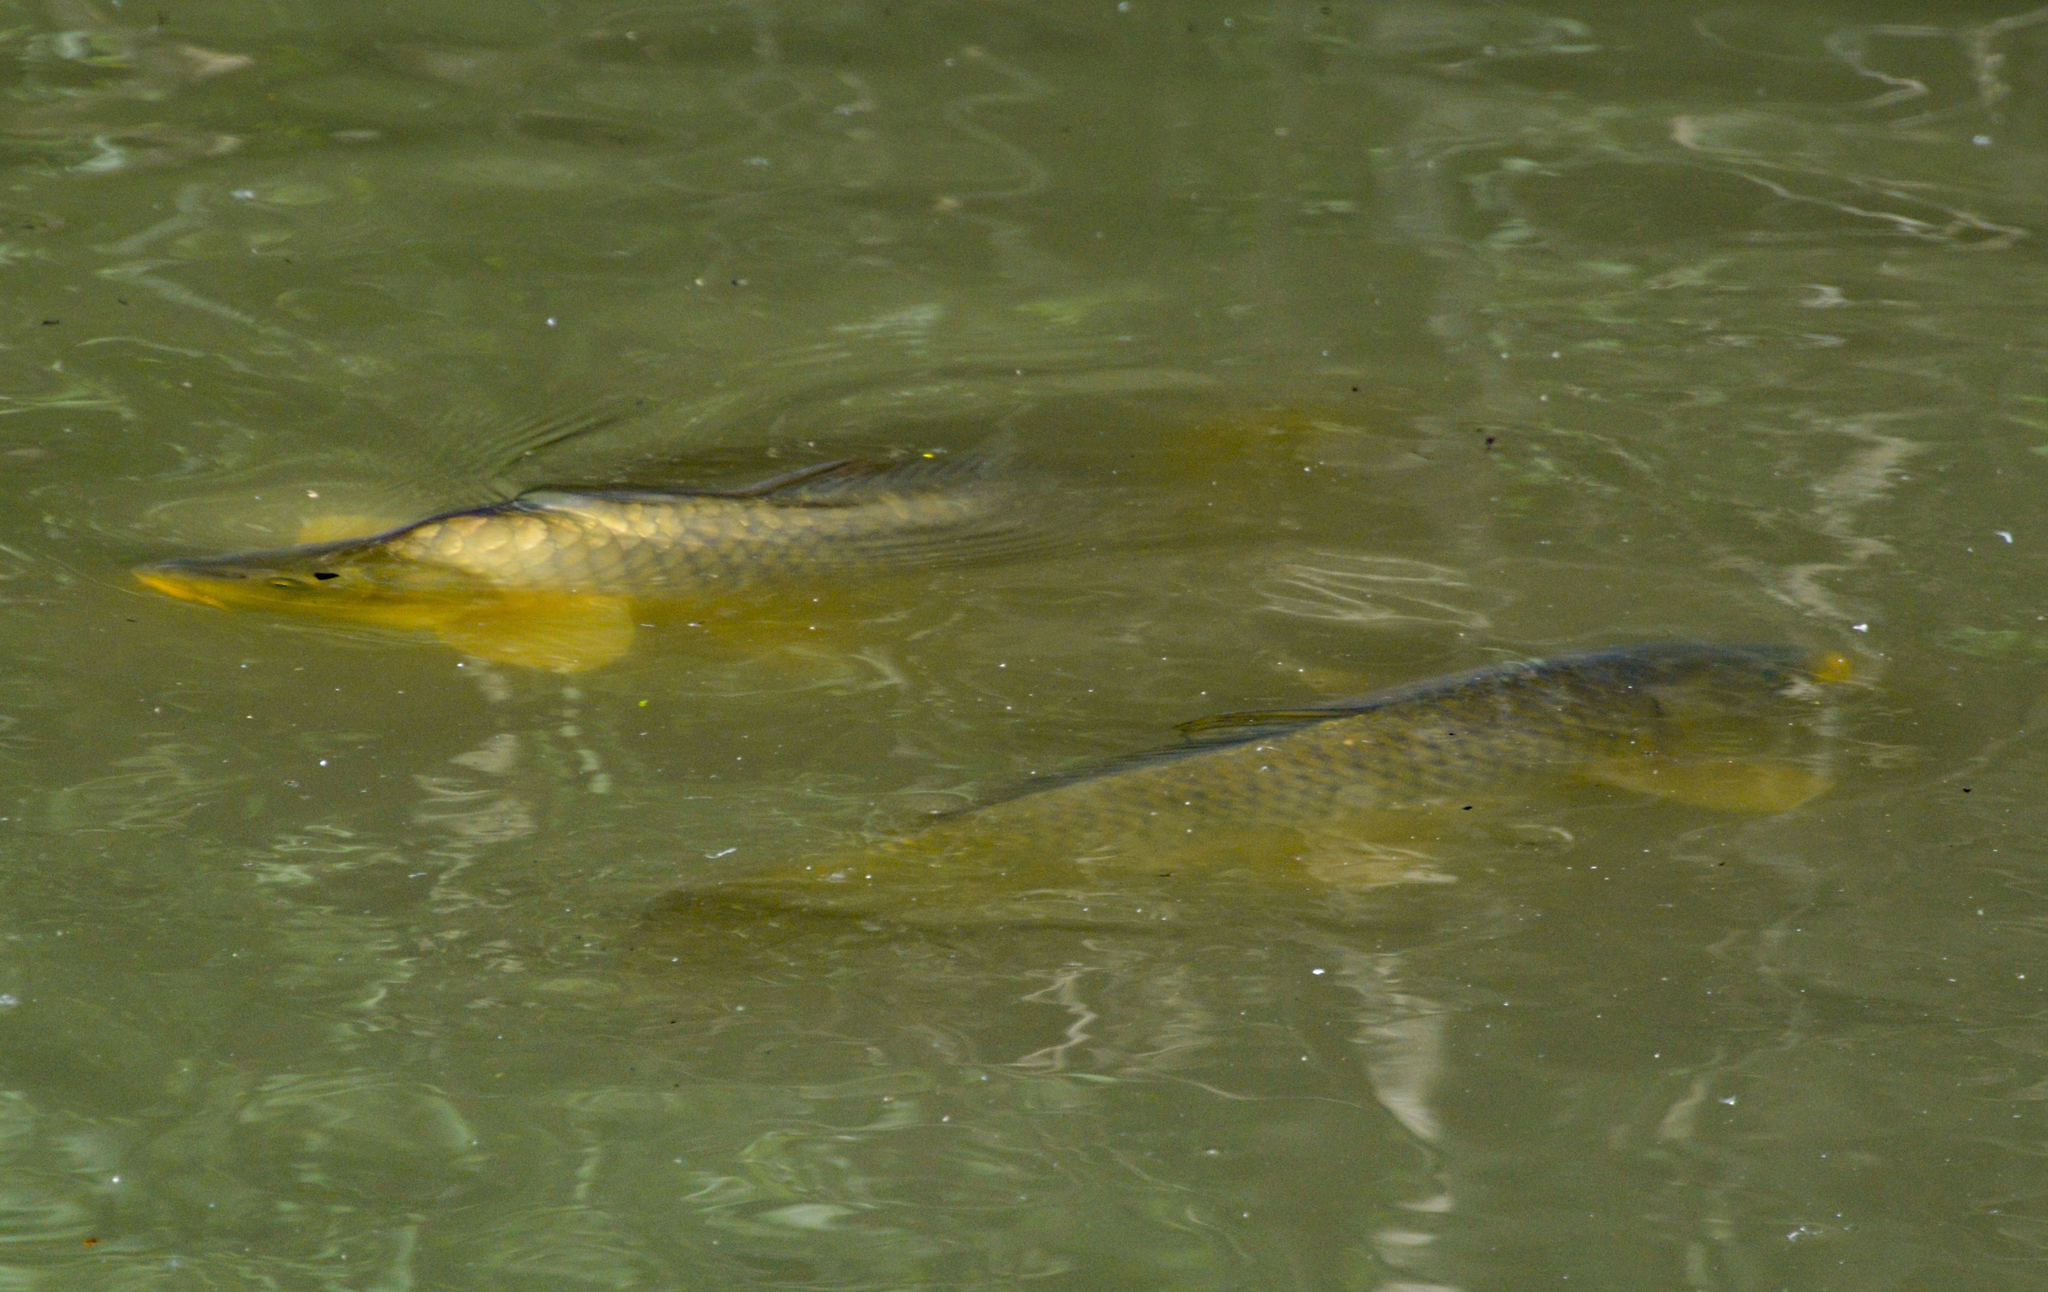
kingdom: Animalia
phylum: Chordata
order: Cypriniformes
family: Cyprinidae
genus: Cyprinus
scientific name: Cyprinus carpio
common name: Common carp
